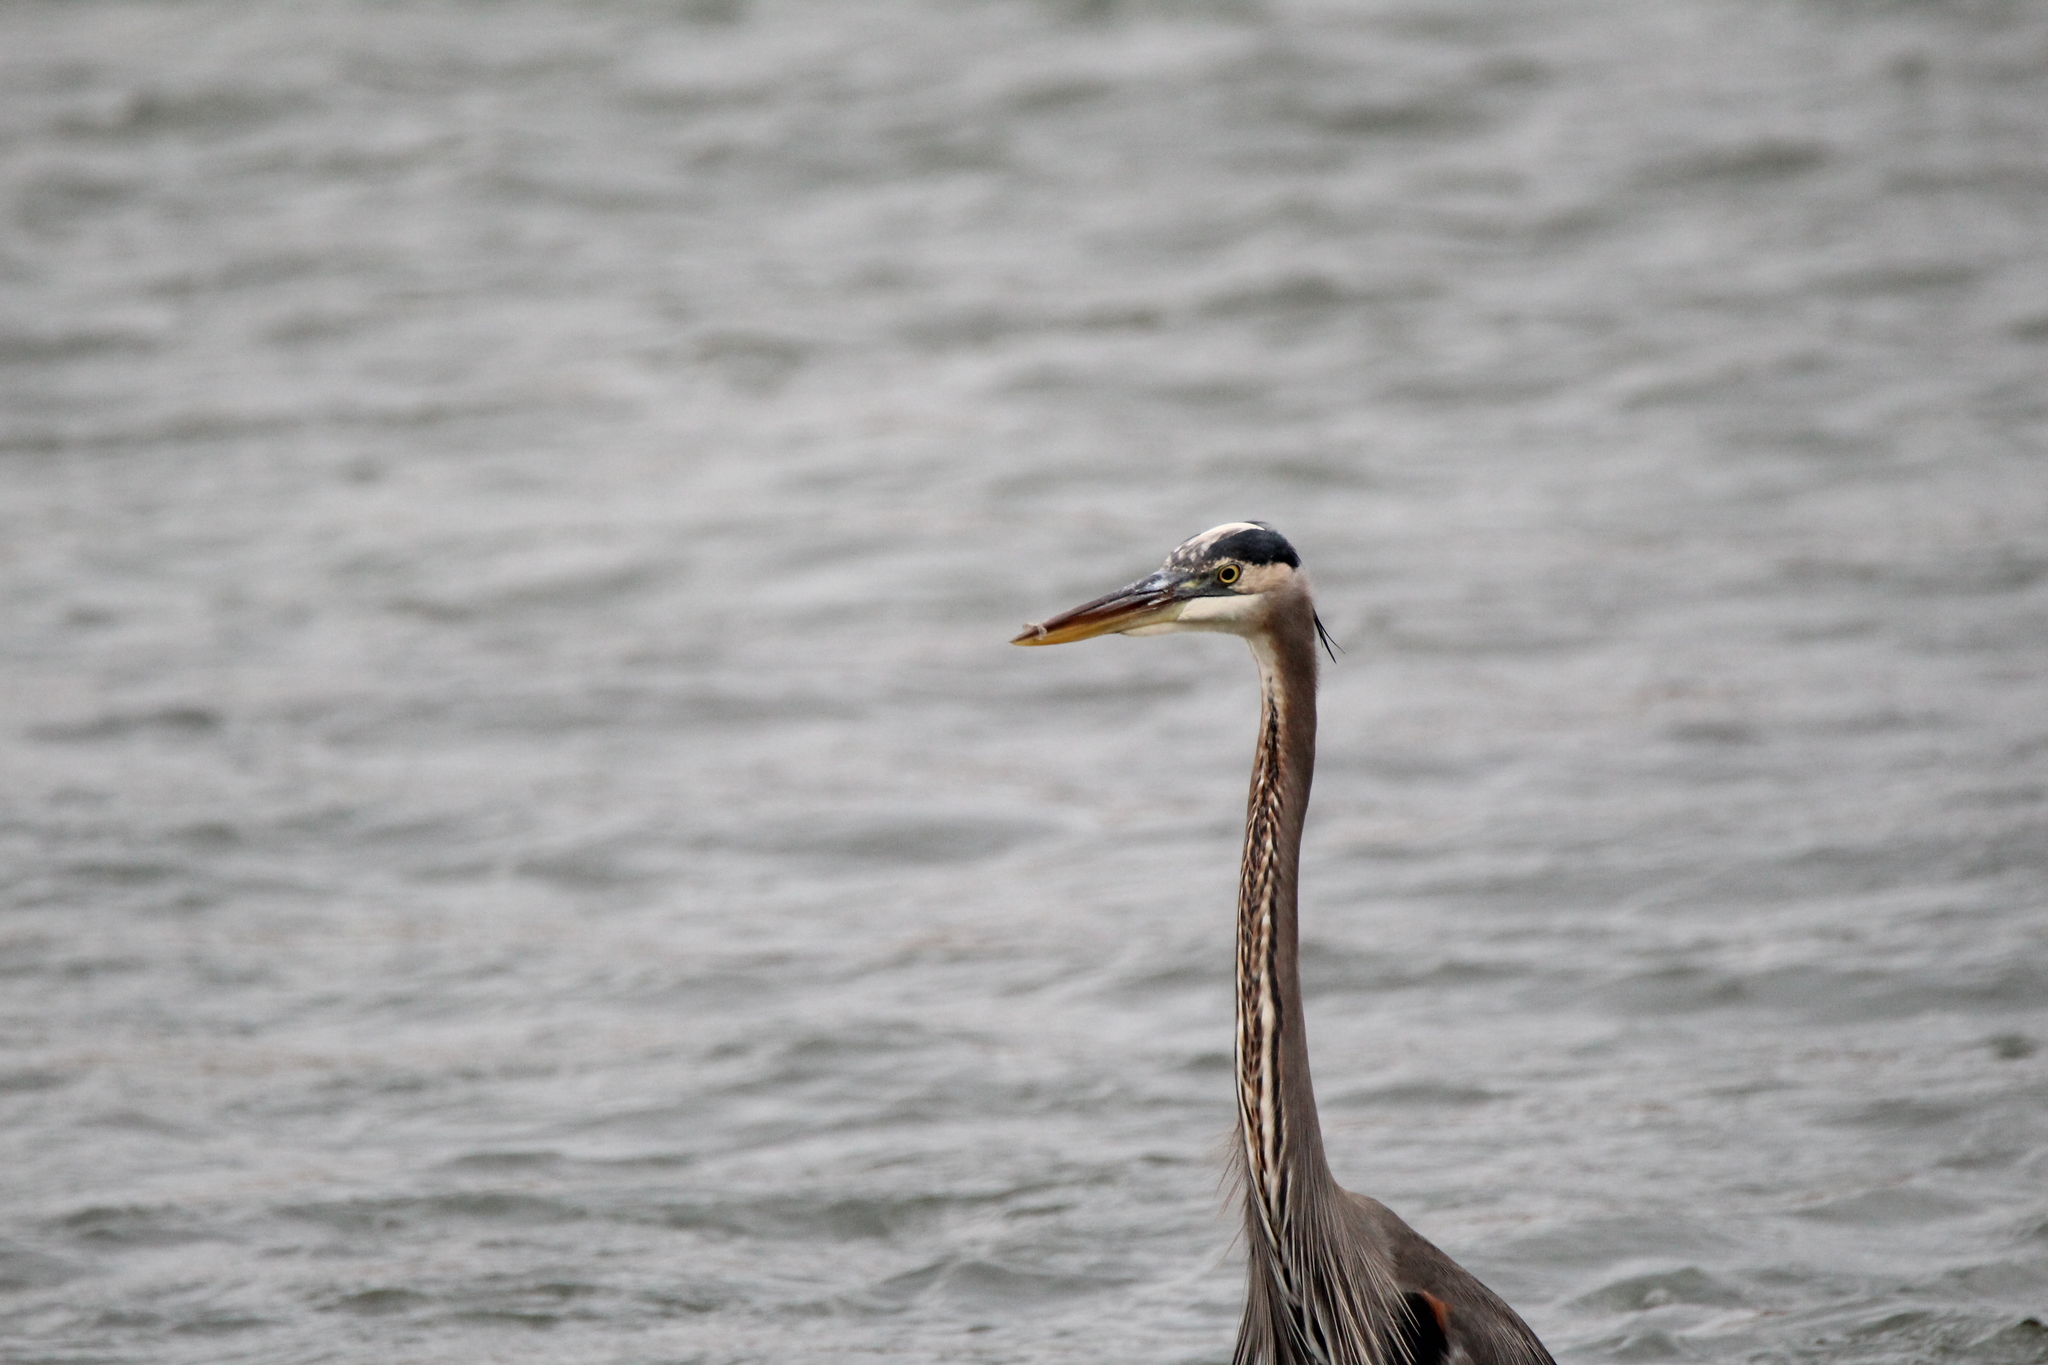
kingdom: Animalia
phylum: Chordata
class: Aves
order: Pelecaniformes
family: Ardeidae
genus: Ardea
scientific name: Ardea herodias
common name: Great blue heron
